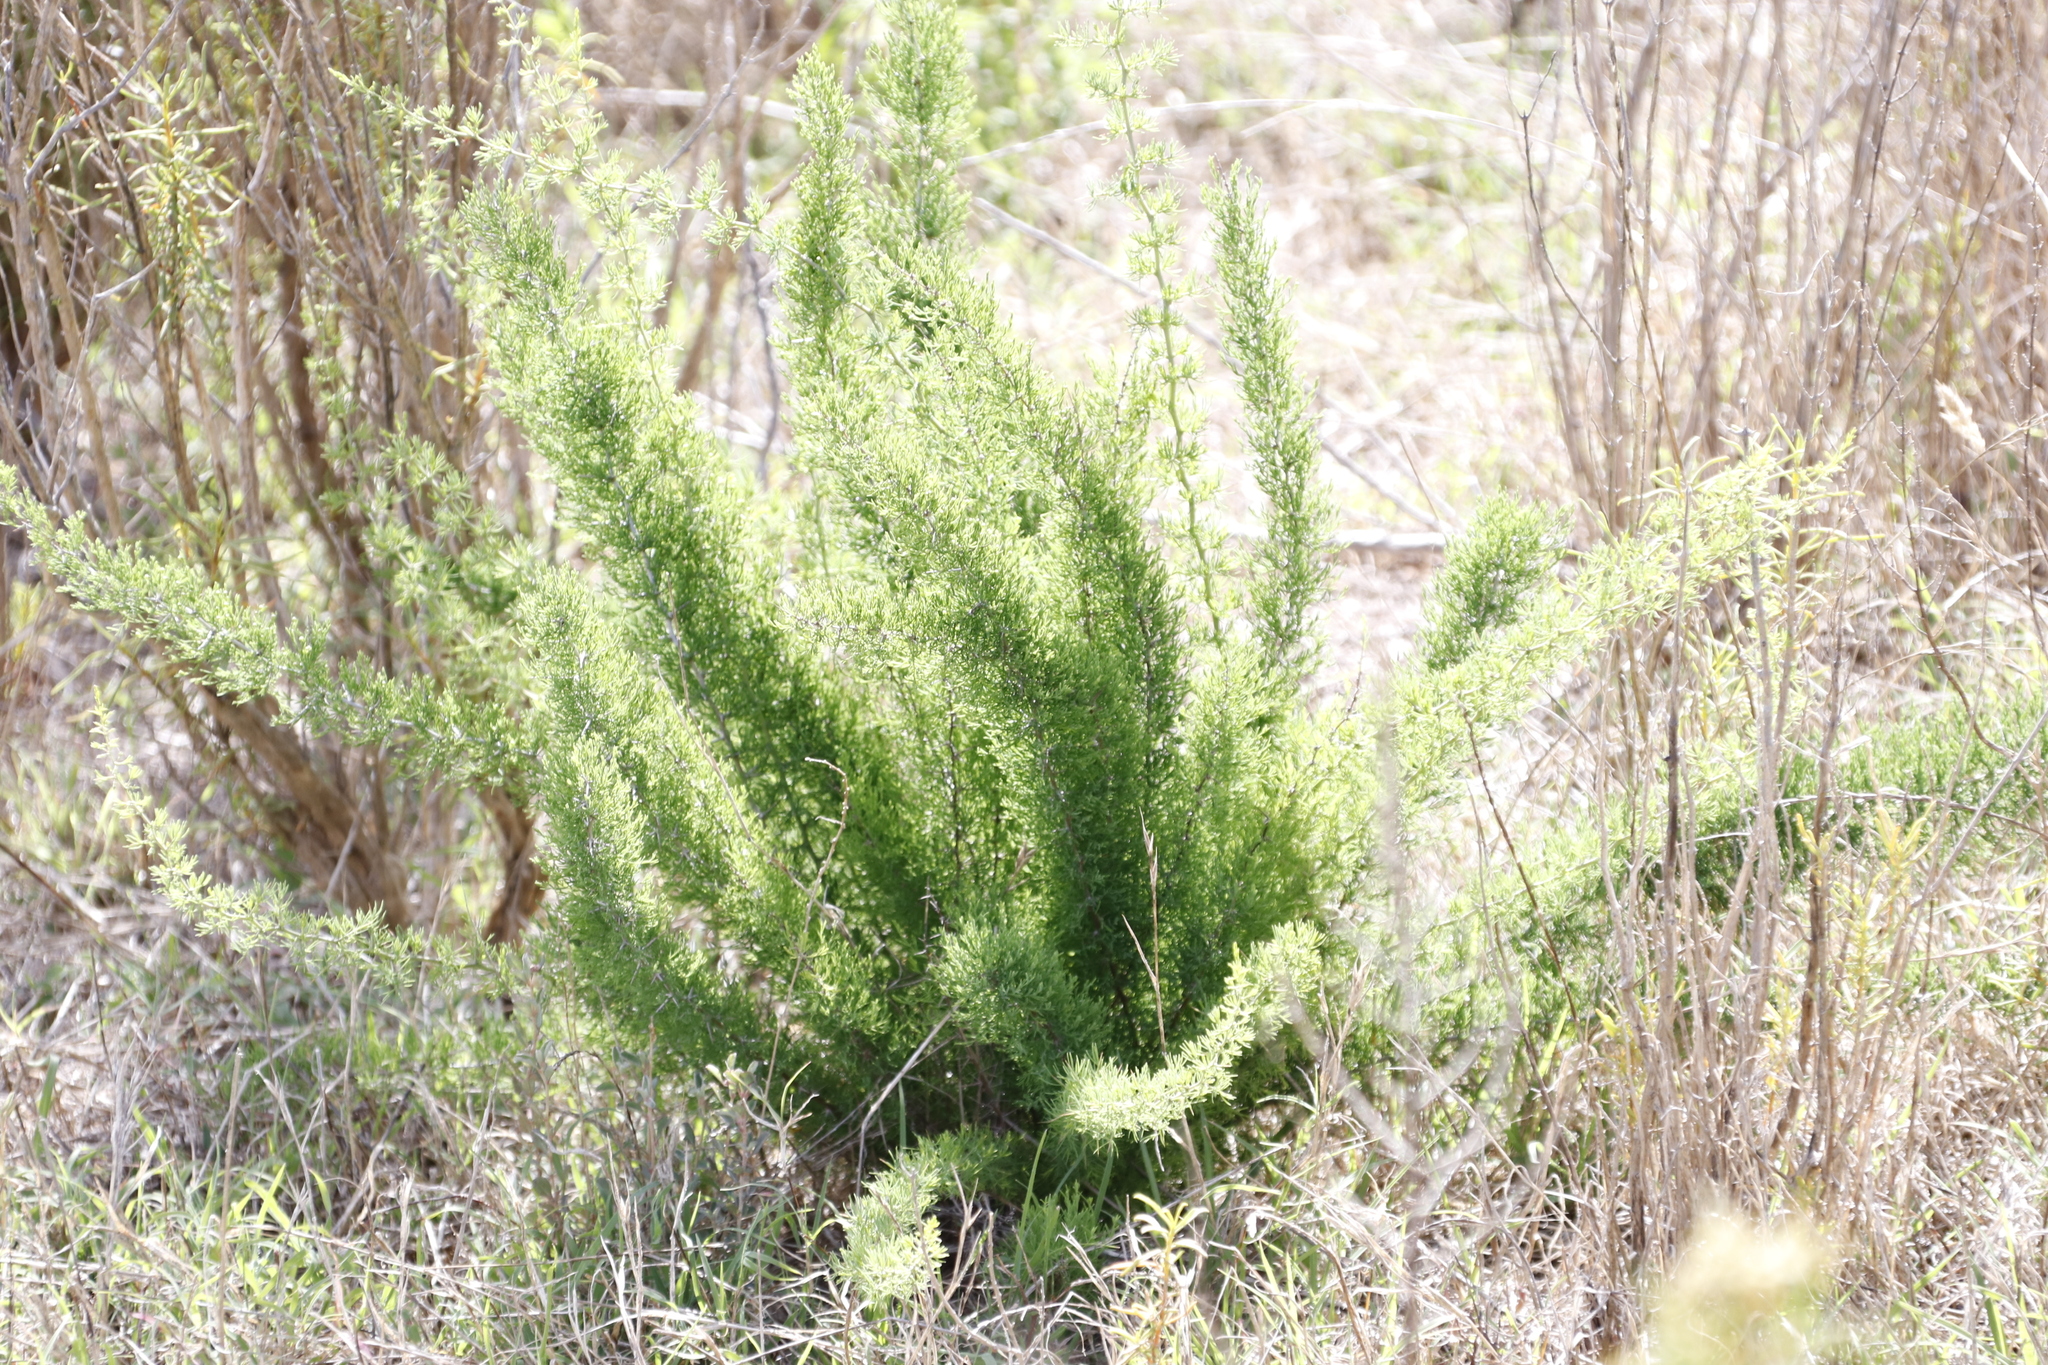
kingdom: Plantae
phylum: Tracheophyta
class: Liliopsida
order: Asparagales
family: Asparagaceae
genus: Asparagus
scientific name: Asparagus suaveolens
